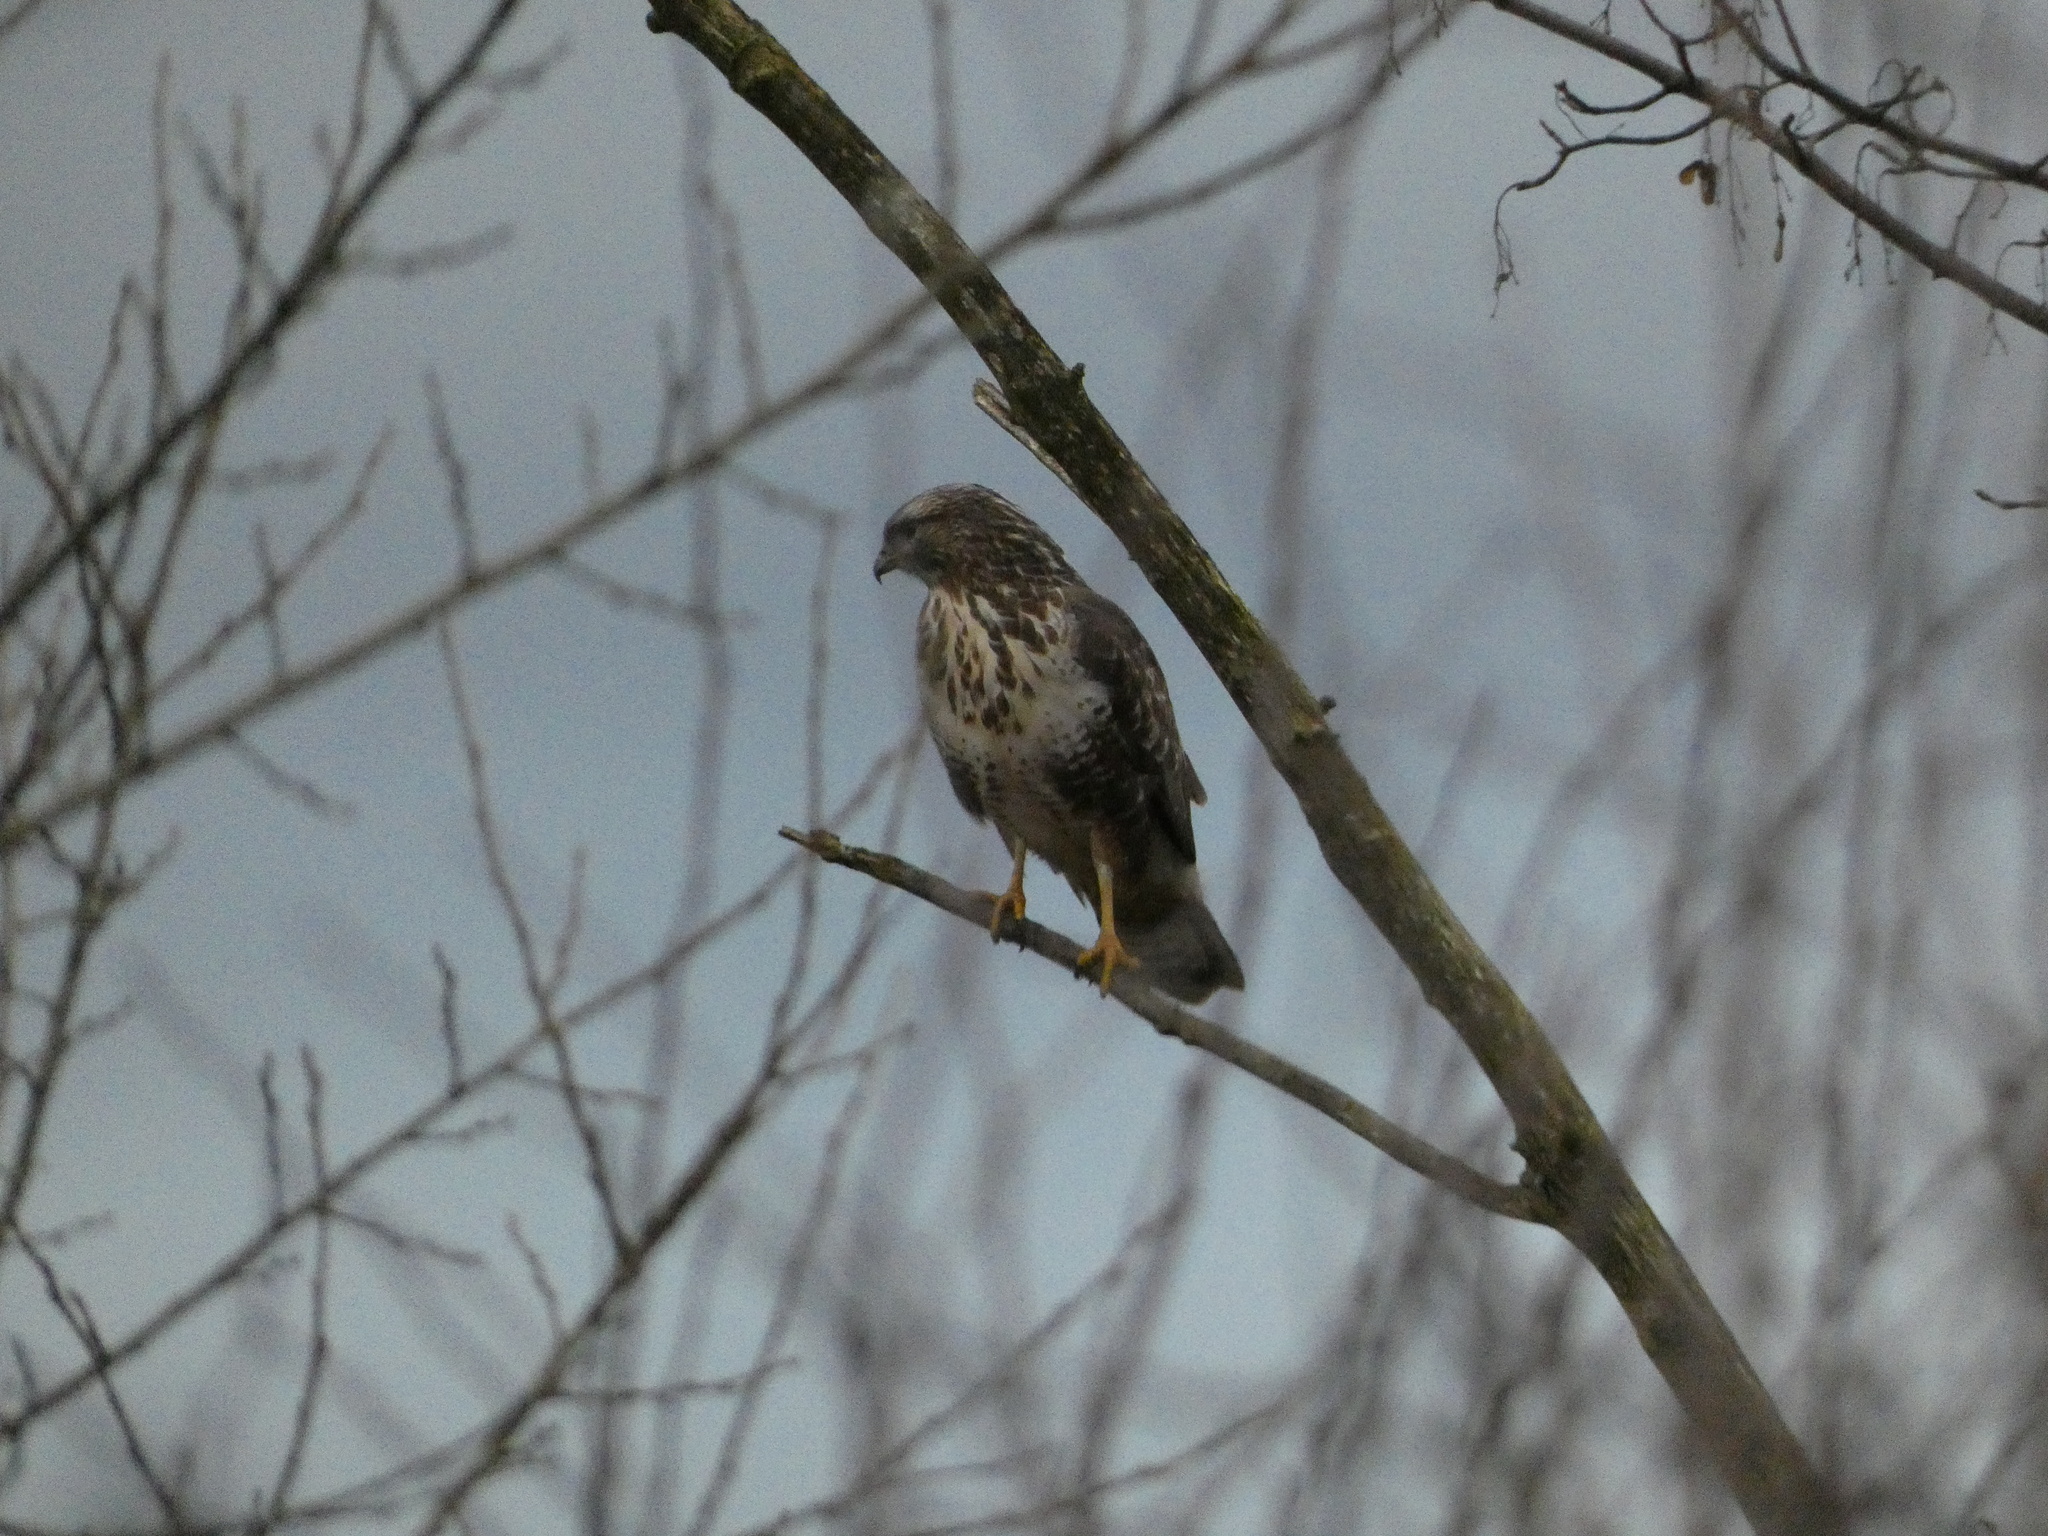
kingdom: Animalia
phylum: Chordata
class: Aves
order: Accipitriformes
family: Accipitridae
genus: Buteo
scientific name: Buteo buteo
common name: Common buzzard
